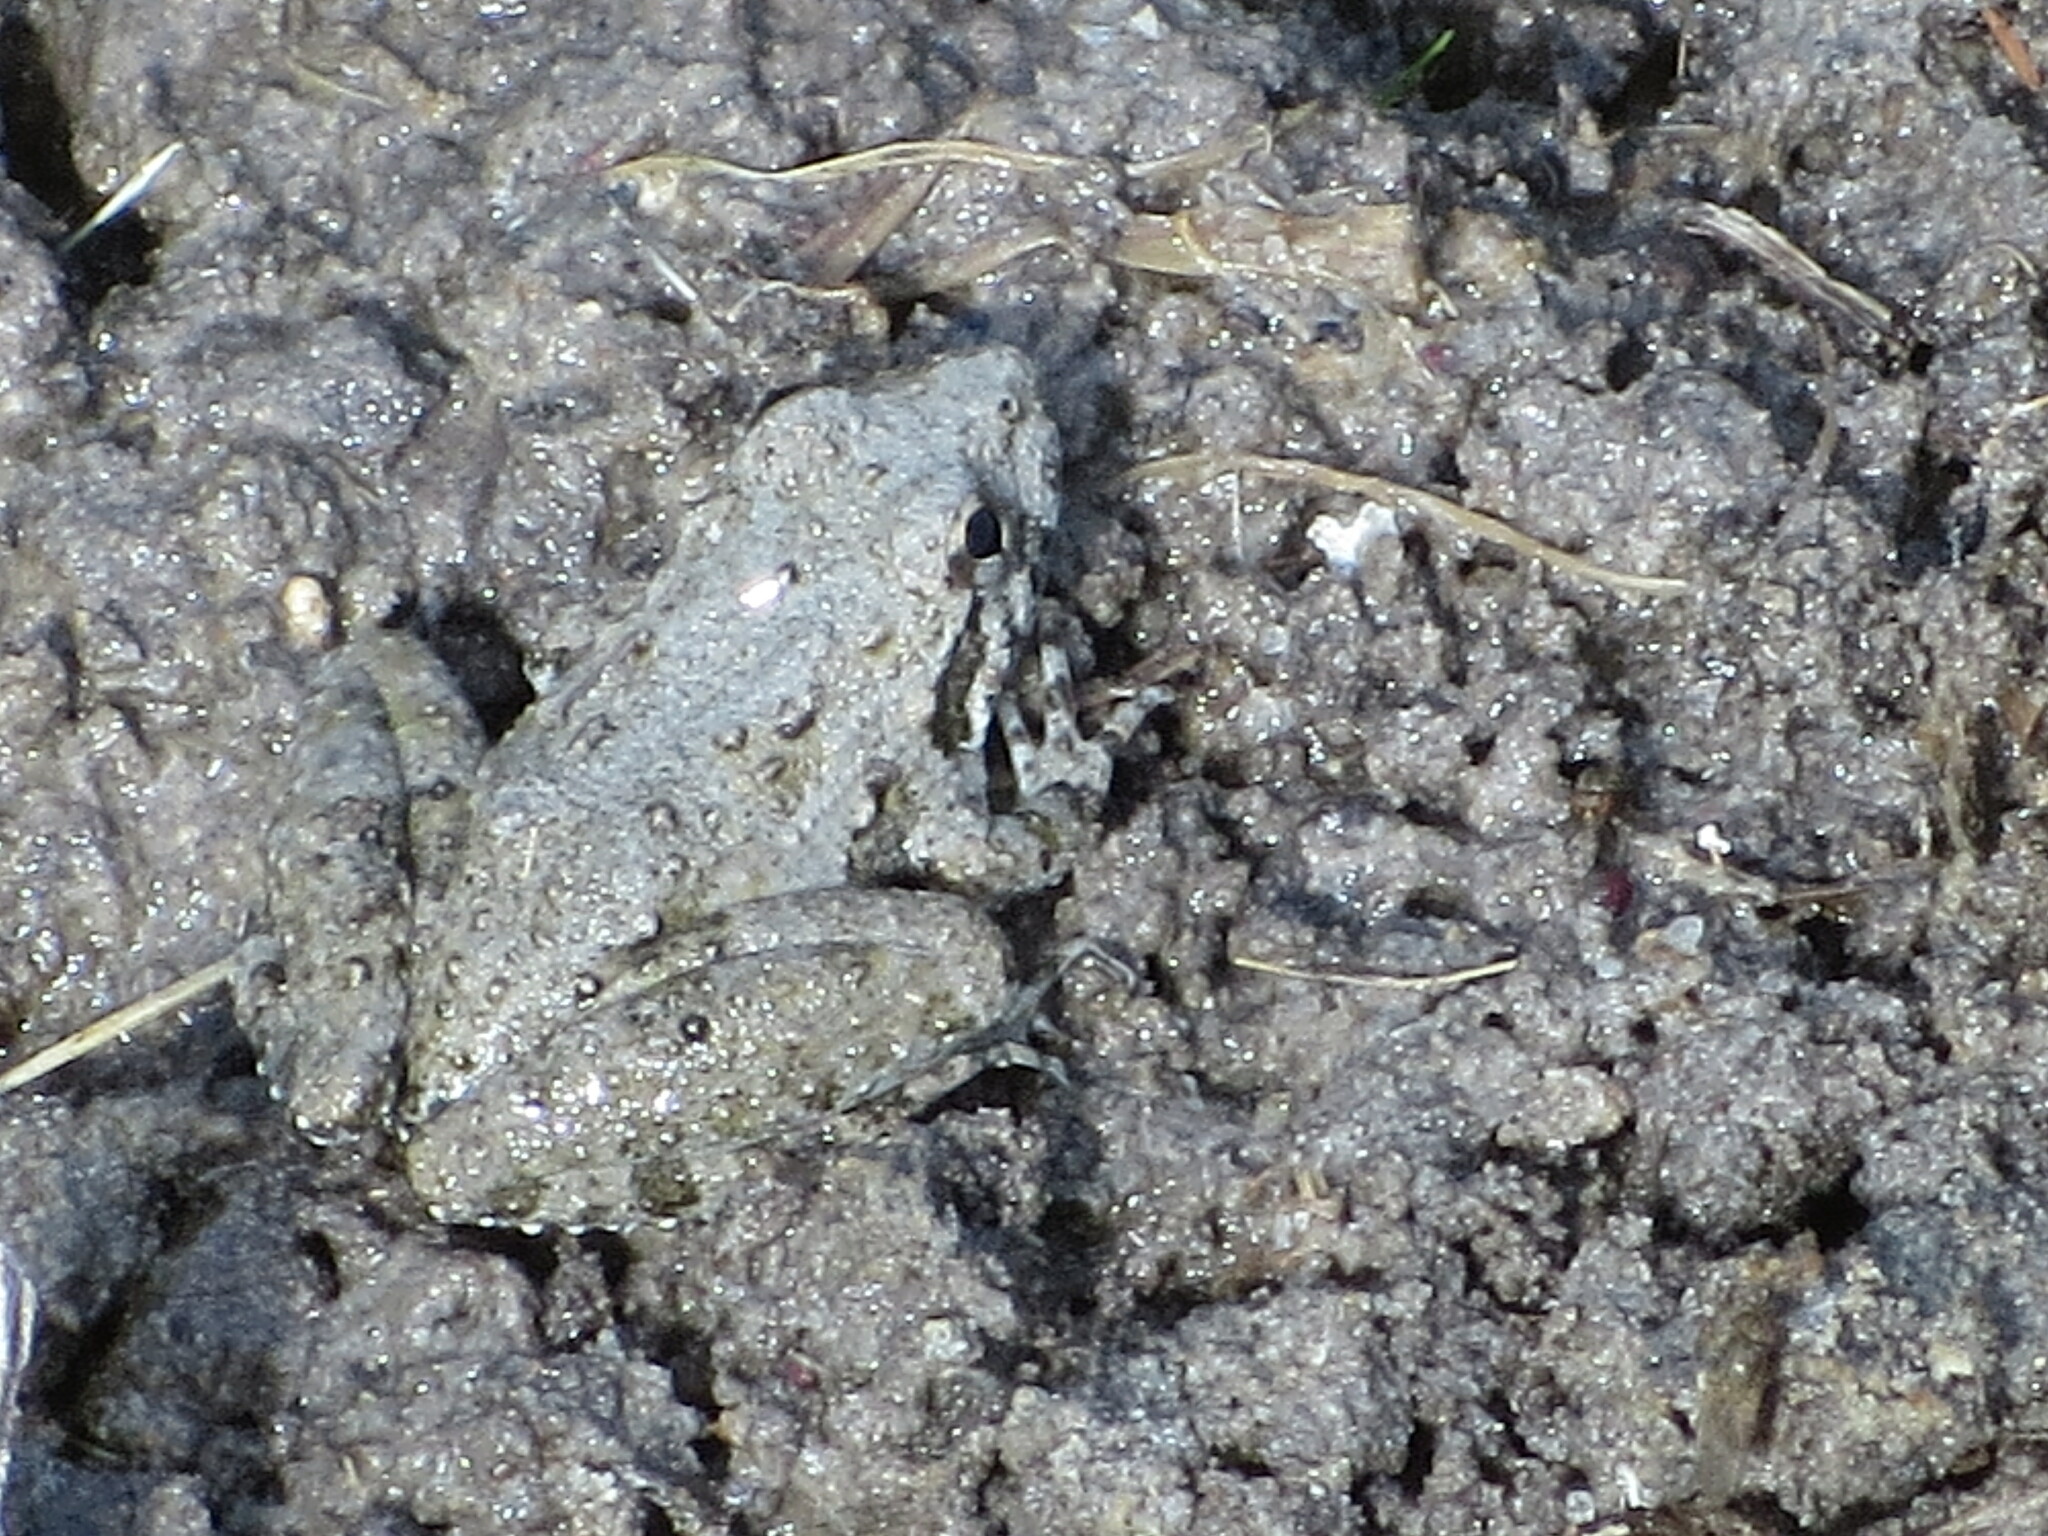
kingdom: Animalia
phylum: Chordata
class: Amphibia
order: Anura
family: Hylidae
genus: Acris
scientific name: Acris blanchardi
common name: Blanchard's cricket frog
